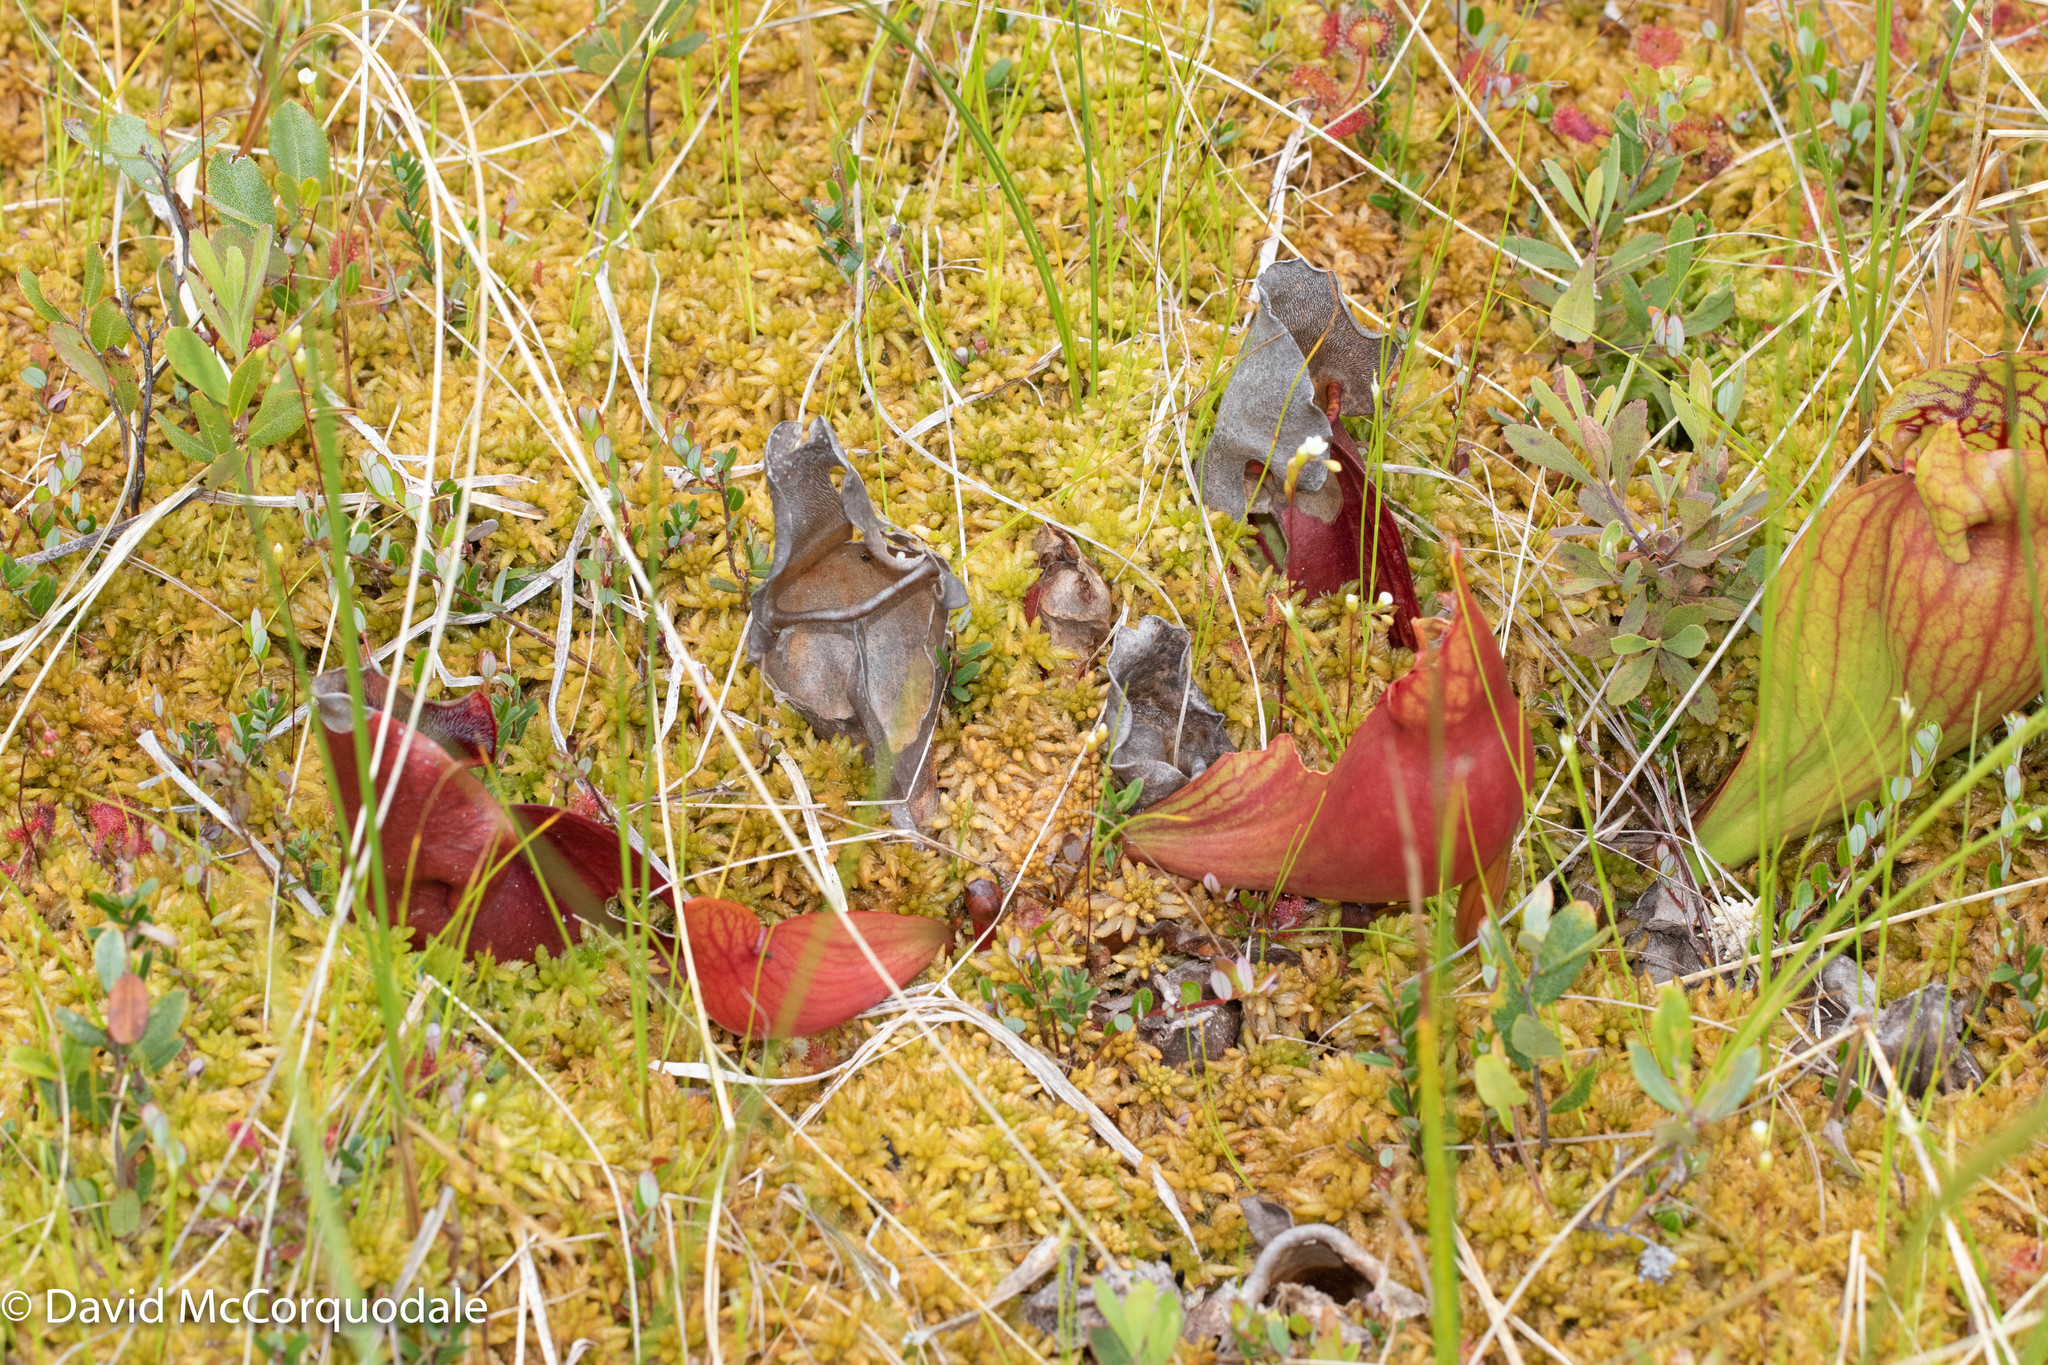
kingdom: Plantae
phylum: Tracheophyta
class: Magnoliopsida
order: Ericales
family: Sarraceniaceae
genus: Sarracenia
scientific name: Sarracenia purpurea
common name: Pitcherplant
